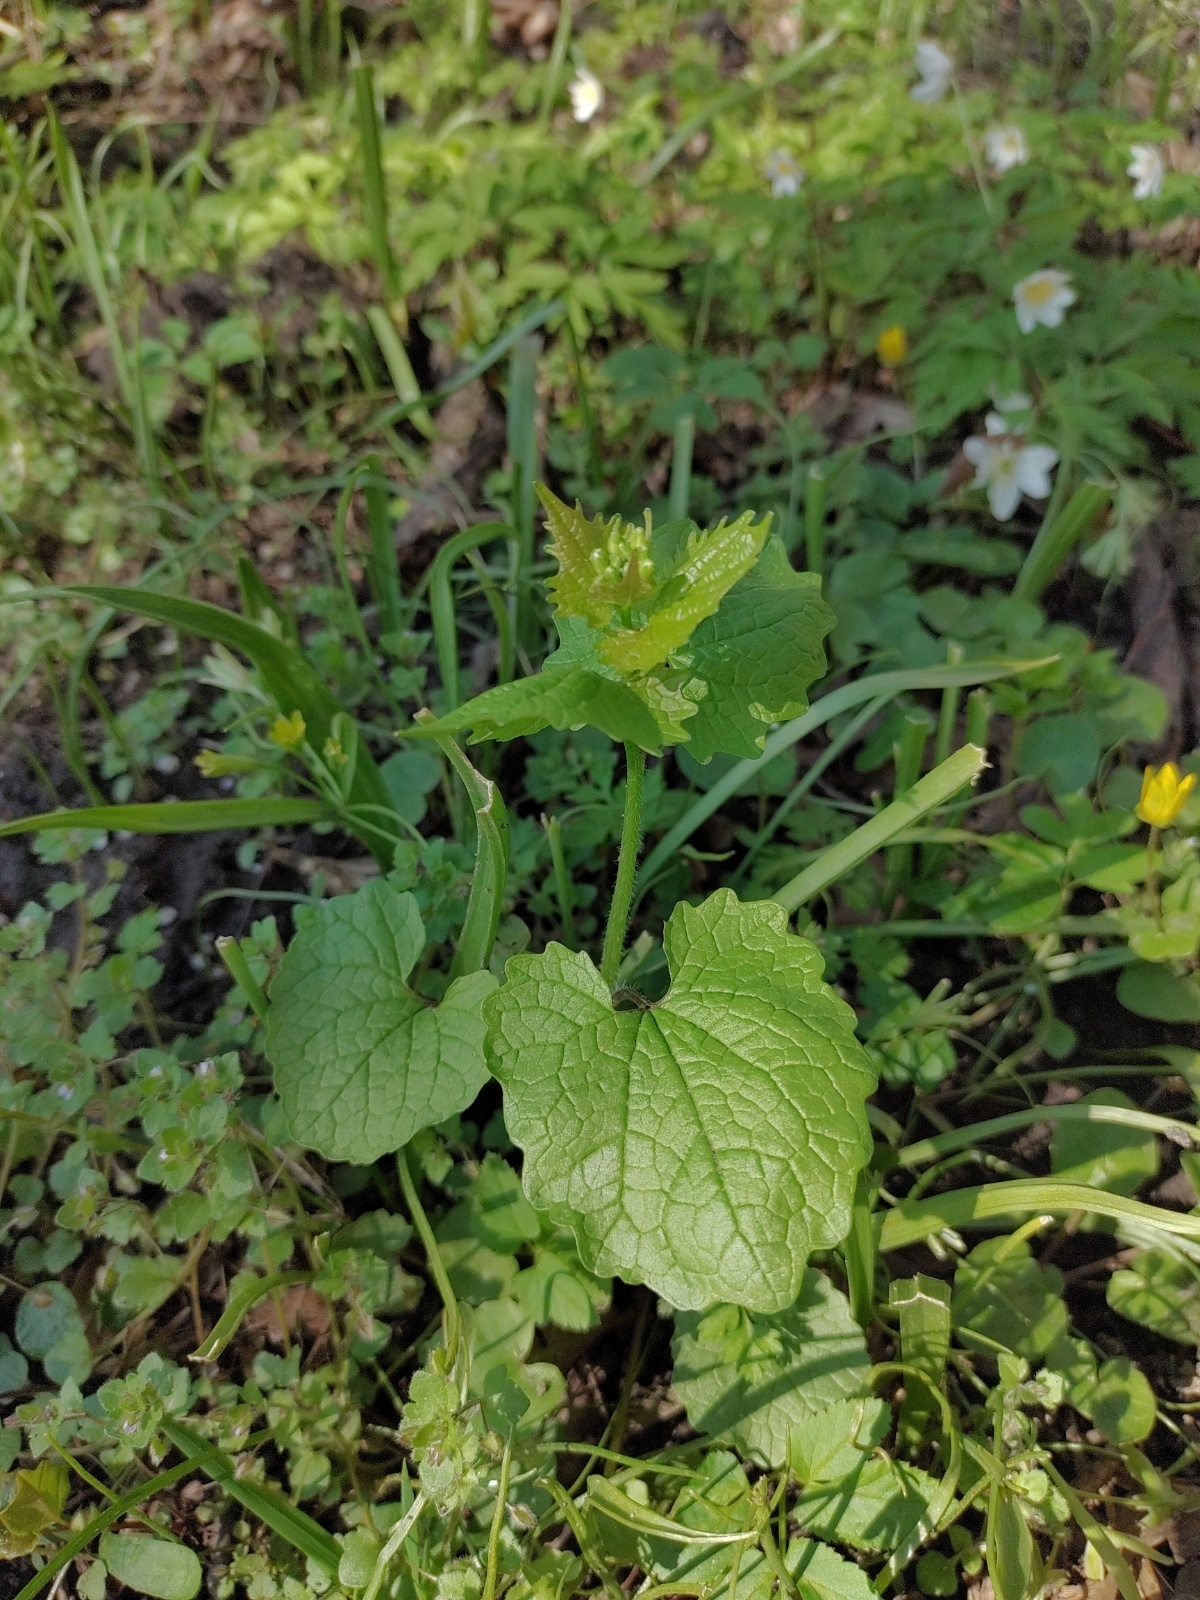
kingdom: Plantae
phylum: Tracheophyta
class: Magnoliopsida
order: Brassicales
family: Brassicaceae
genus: Alliaria
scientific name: Alliaria petiolata
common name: Garlic mustard
